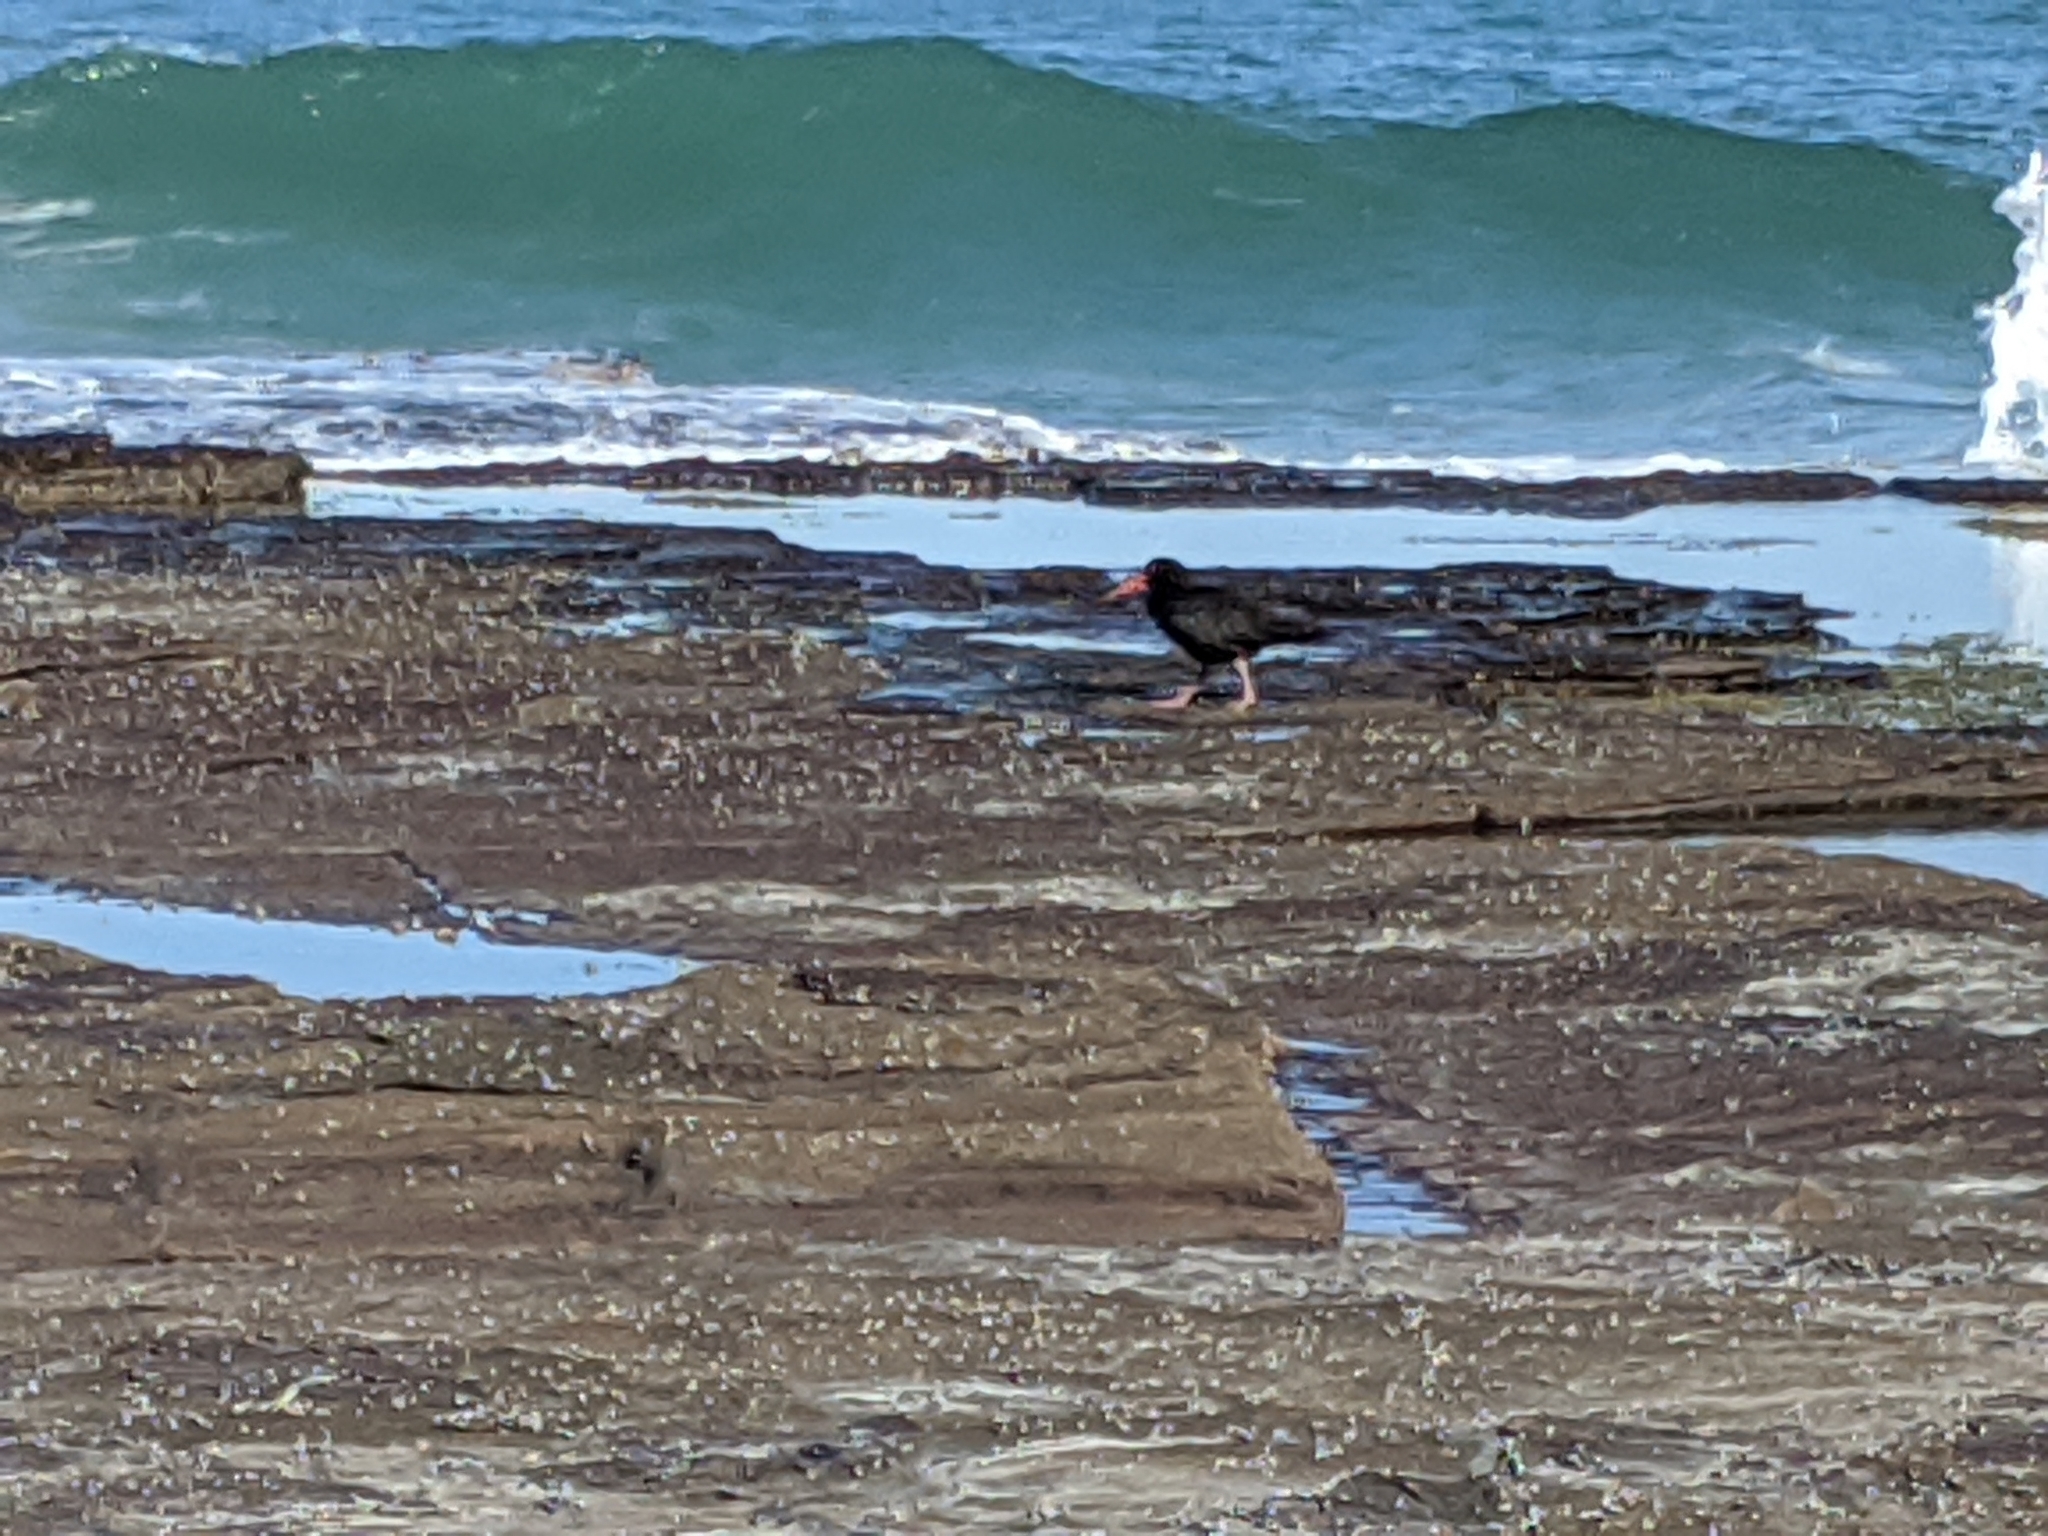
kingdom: Animalia
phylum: Chordata
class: Aves
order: Charadriiformes
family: Haematopodidae
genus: Haematopus
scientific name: Haematopus fuliginosus
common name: Sooty oystercatcher
